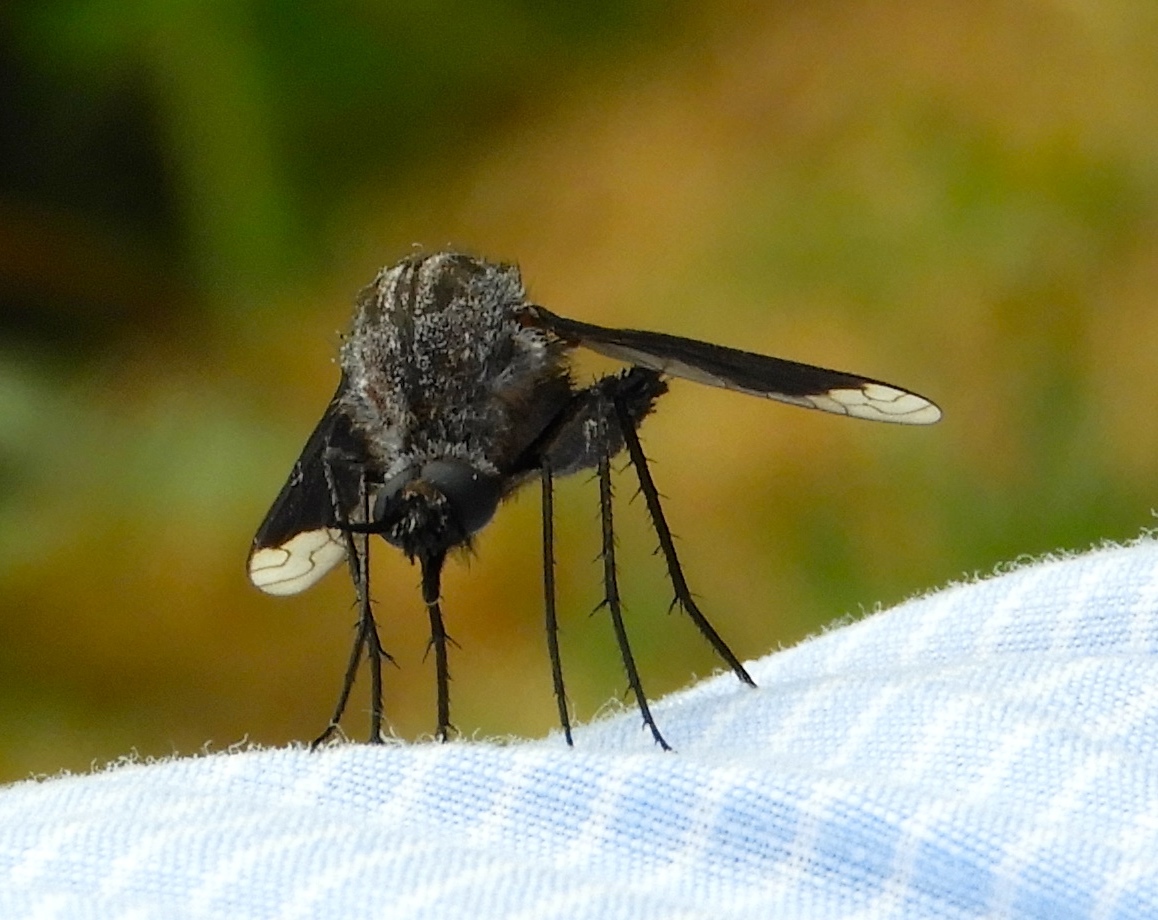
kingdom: Animalia
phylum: Arthropoda
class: Insecta
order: Diptera
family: Bombyliidae
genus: Lepidophora
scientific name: Lepidophora vetusta
